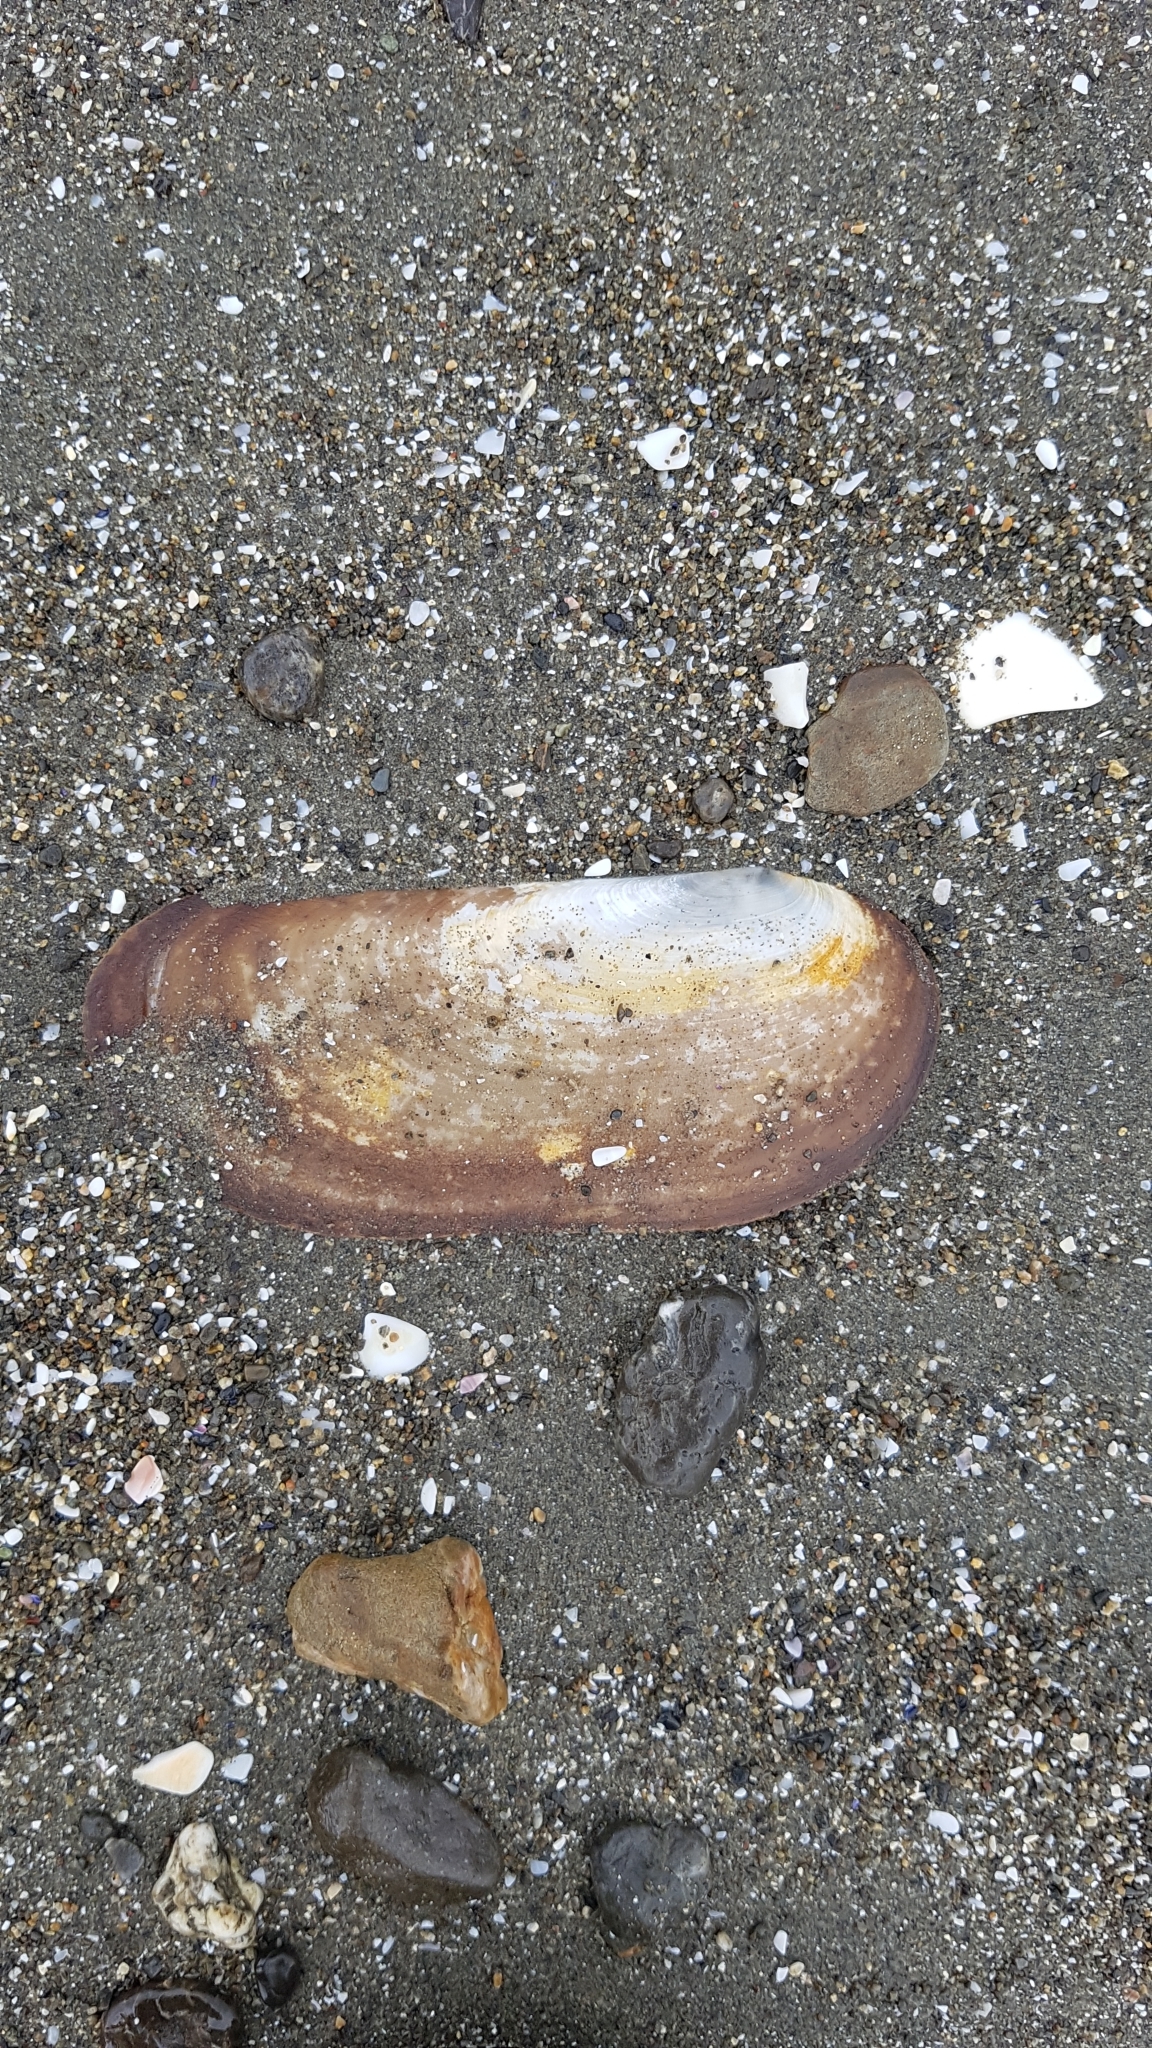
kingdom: Animalia
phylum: Mollusca
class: Bivalvia
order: Venerida
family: Mactridae
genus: Zenatia
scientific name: Zenatia acinaces
